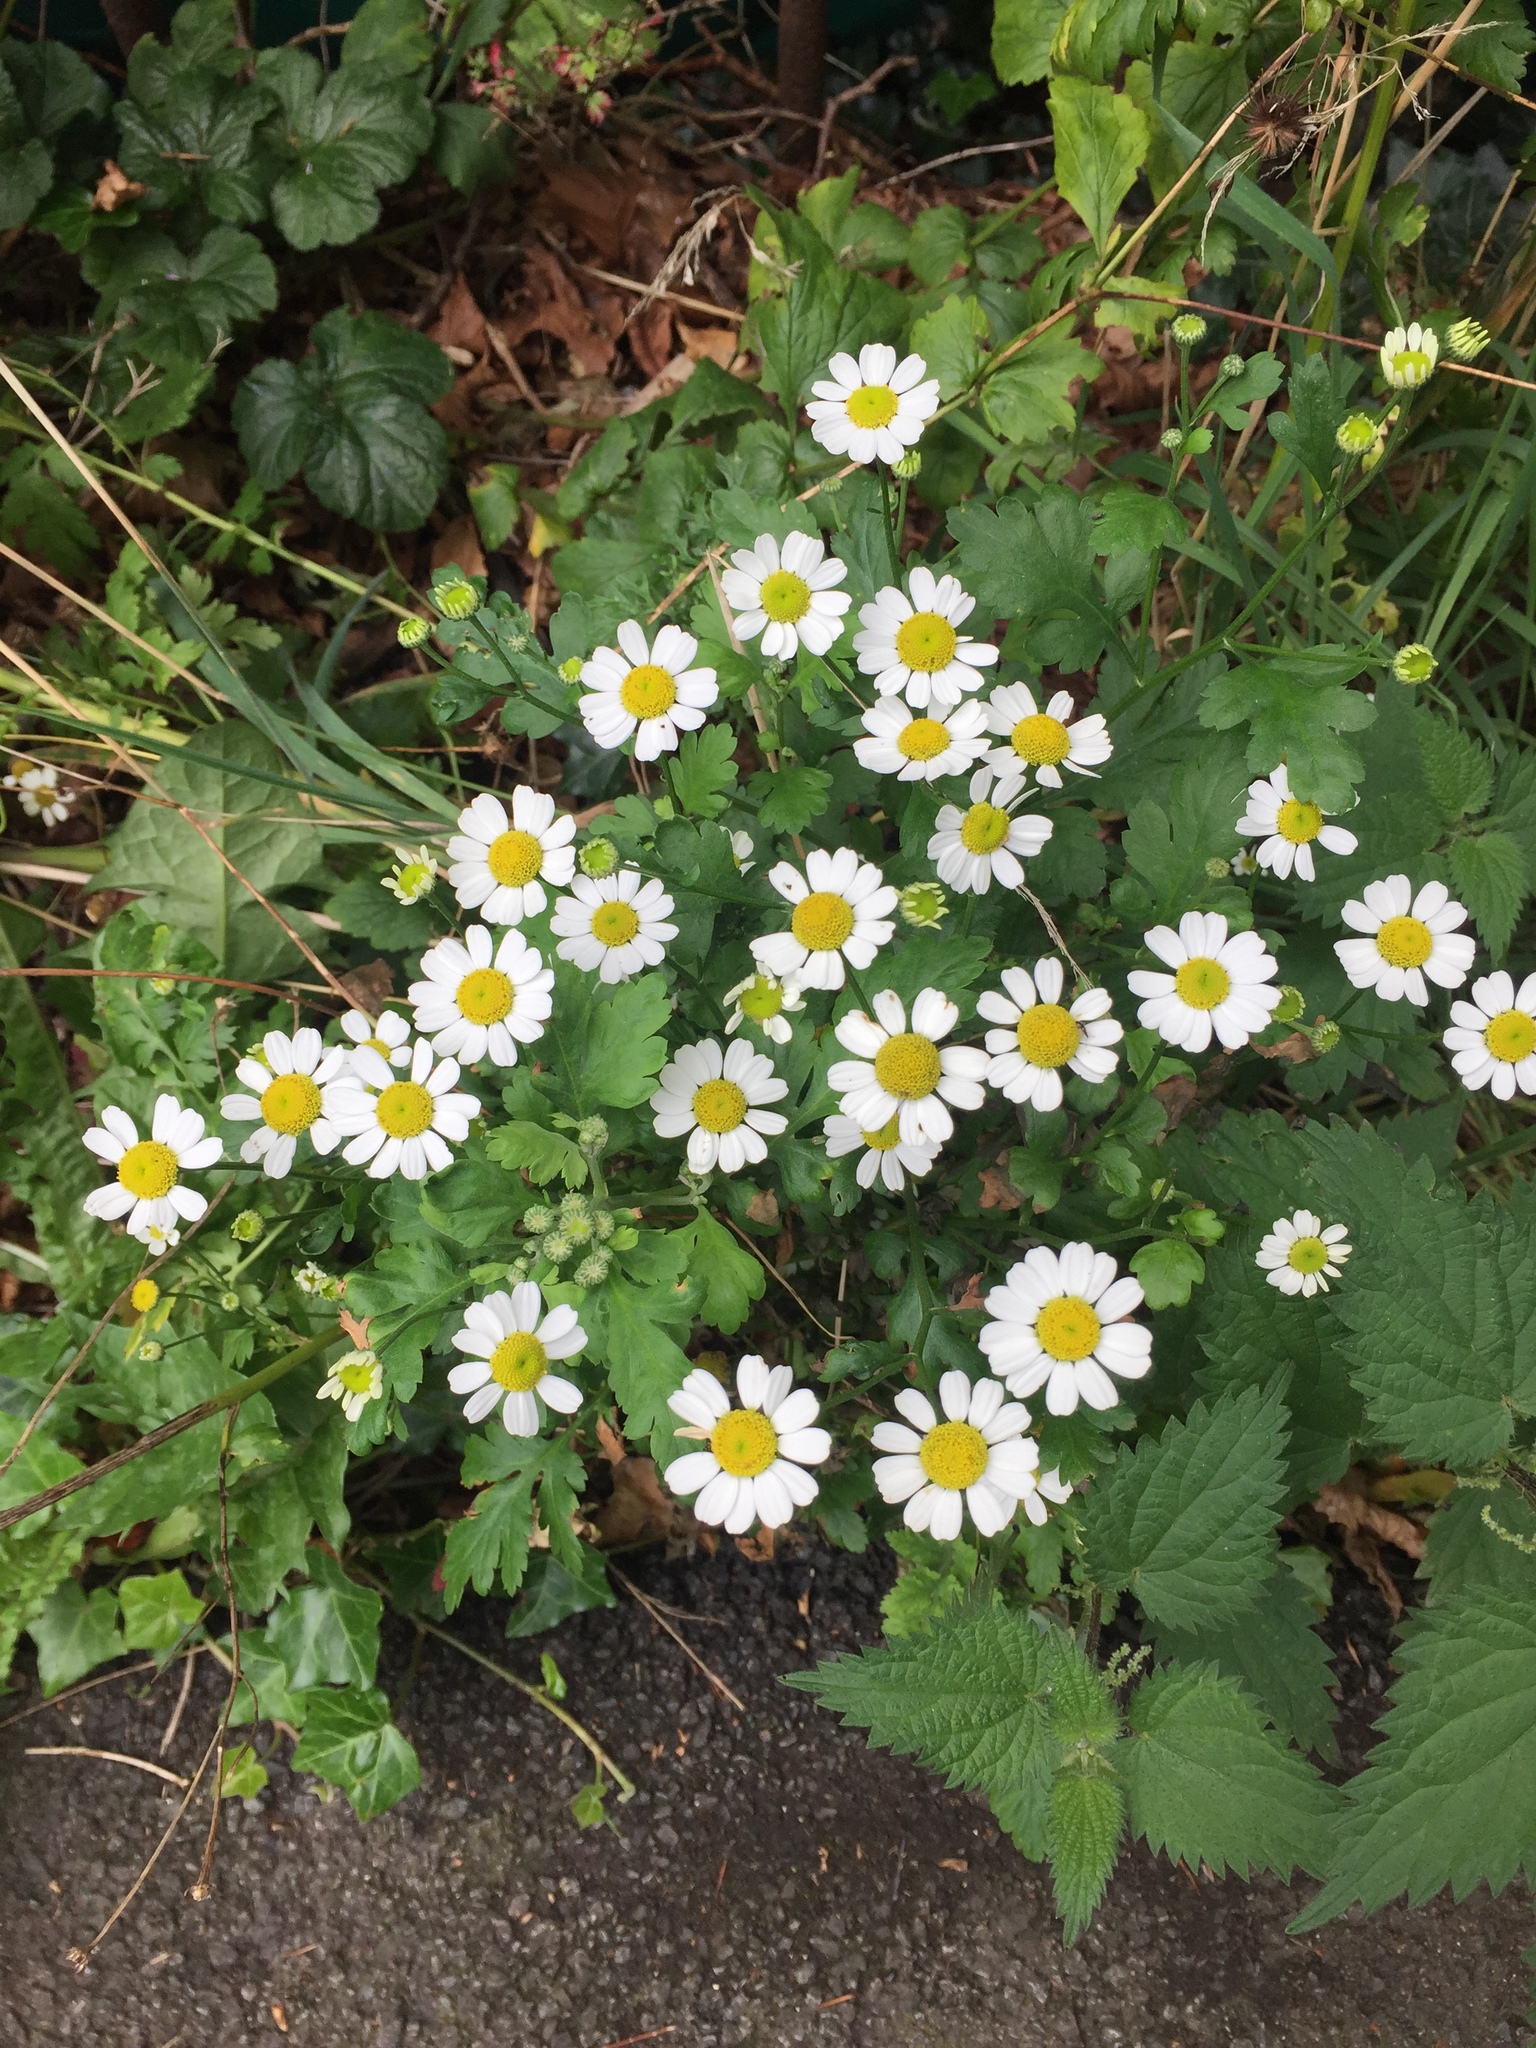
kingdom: Plantae
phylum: Tracheophyta
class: Magnoliopsida
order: Asterales
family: Asteraceae
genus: Tanacetum
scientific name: Tanacetum parthenium
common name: Feverfew
